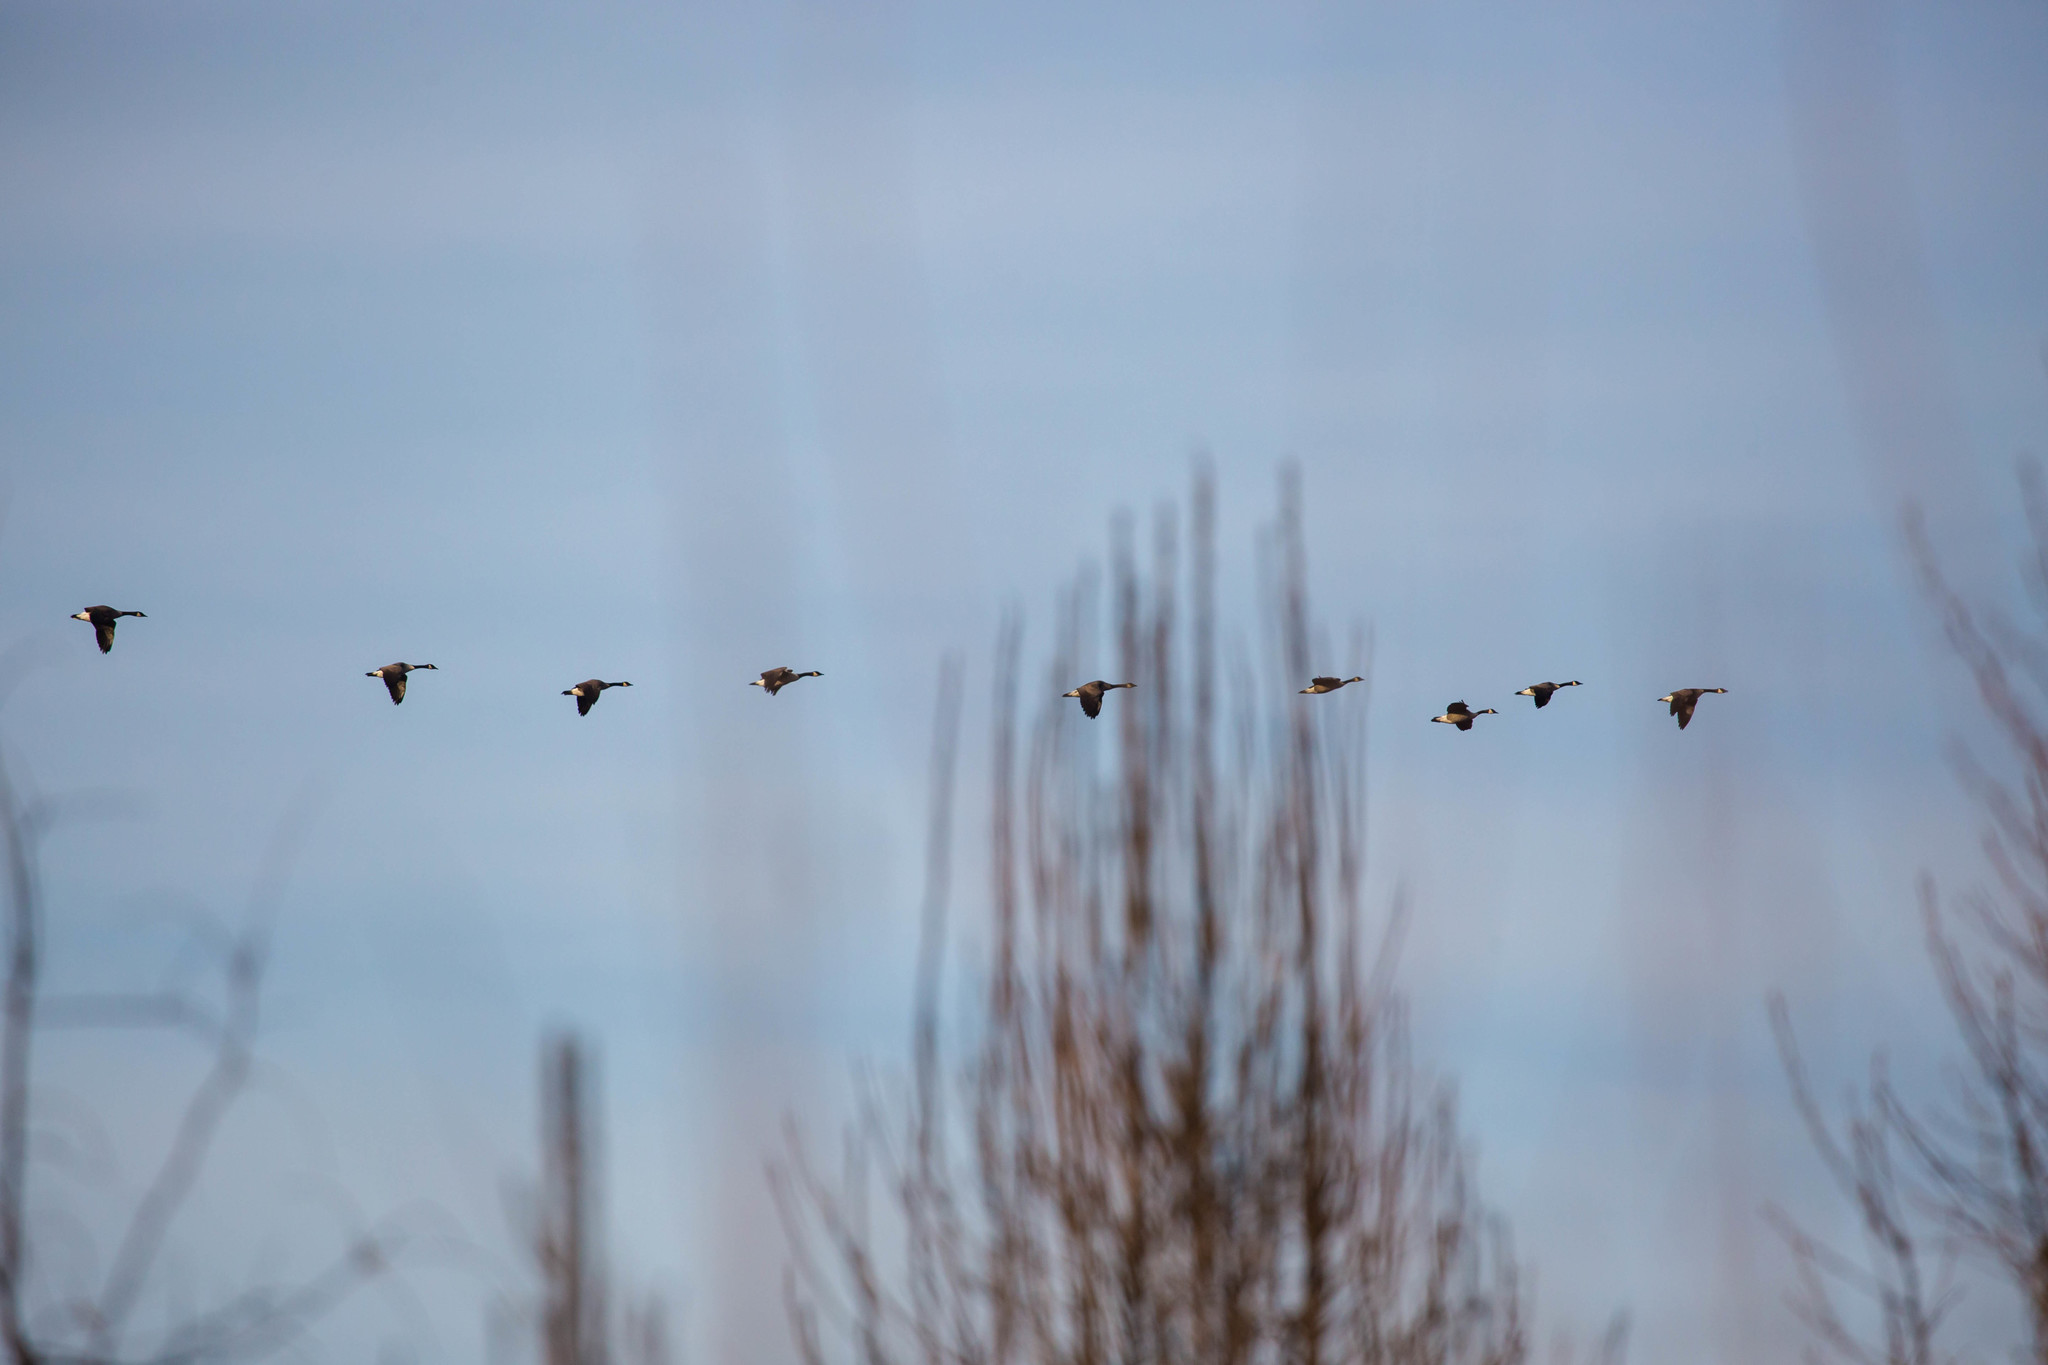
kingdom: Animalia
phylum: Chordata
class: Aves
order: Anseriformes
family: Anatidae
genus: Branta
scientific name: Branta canadensis
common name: Canada goose
